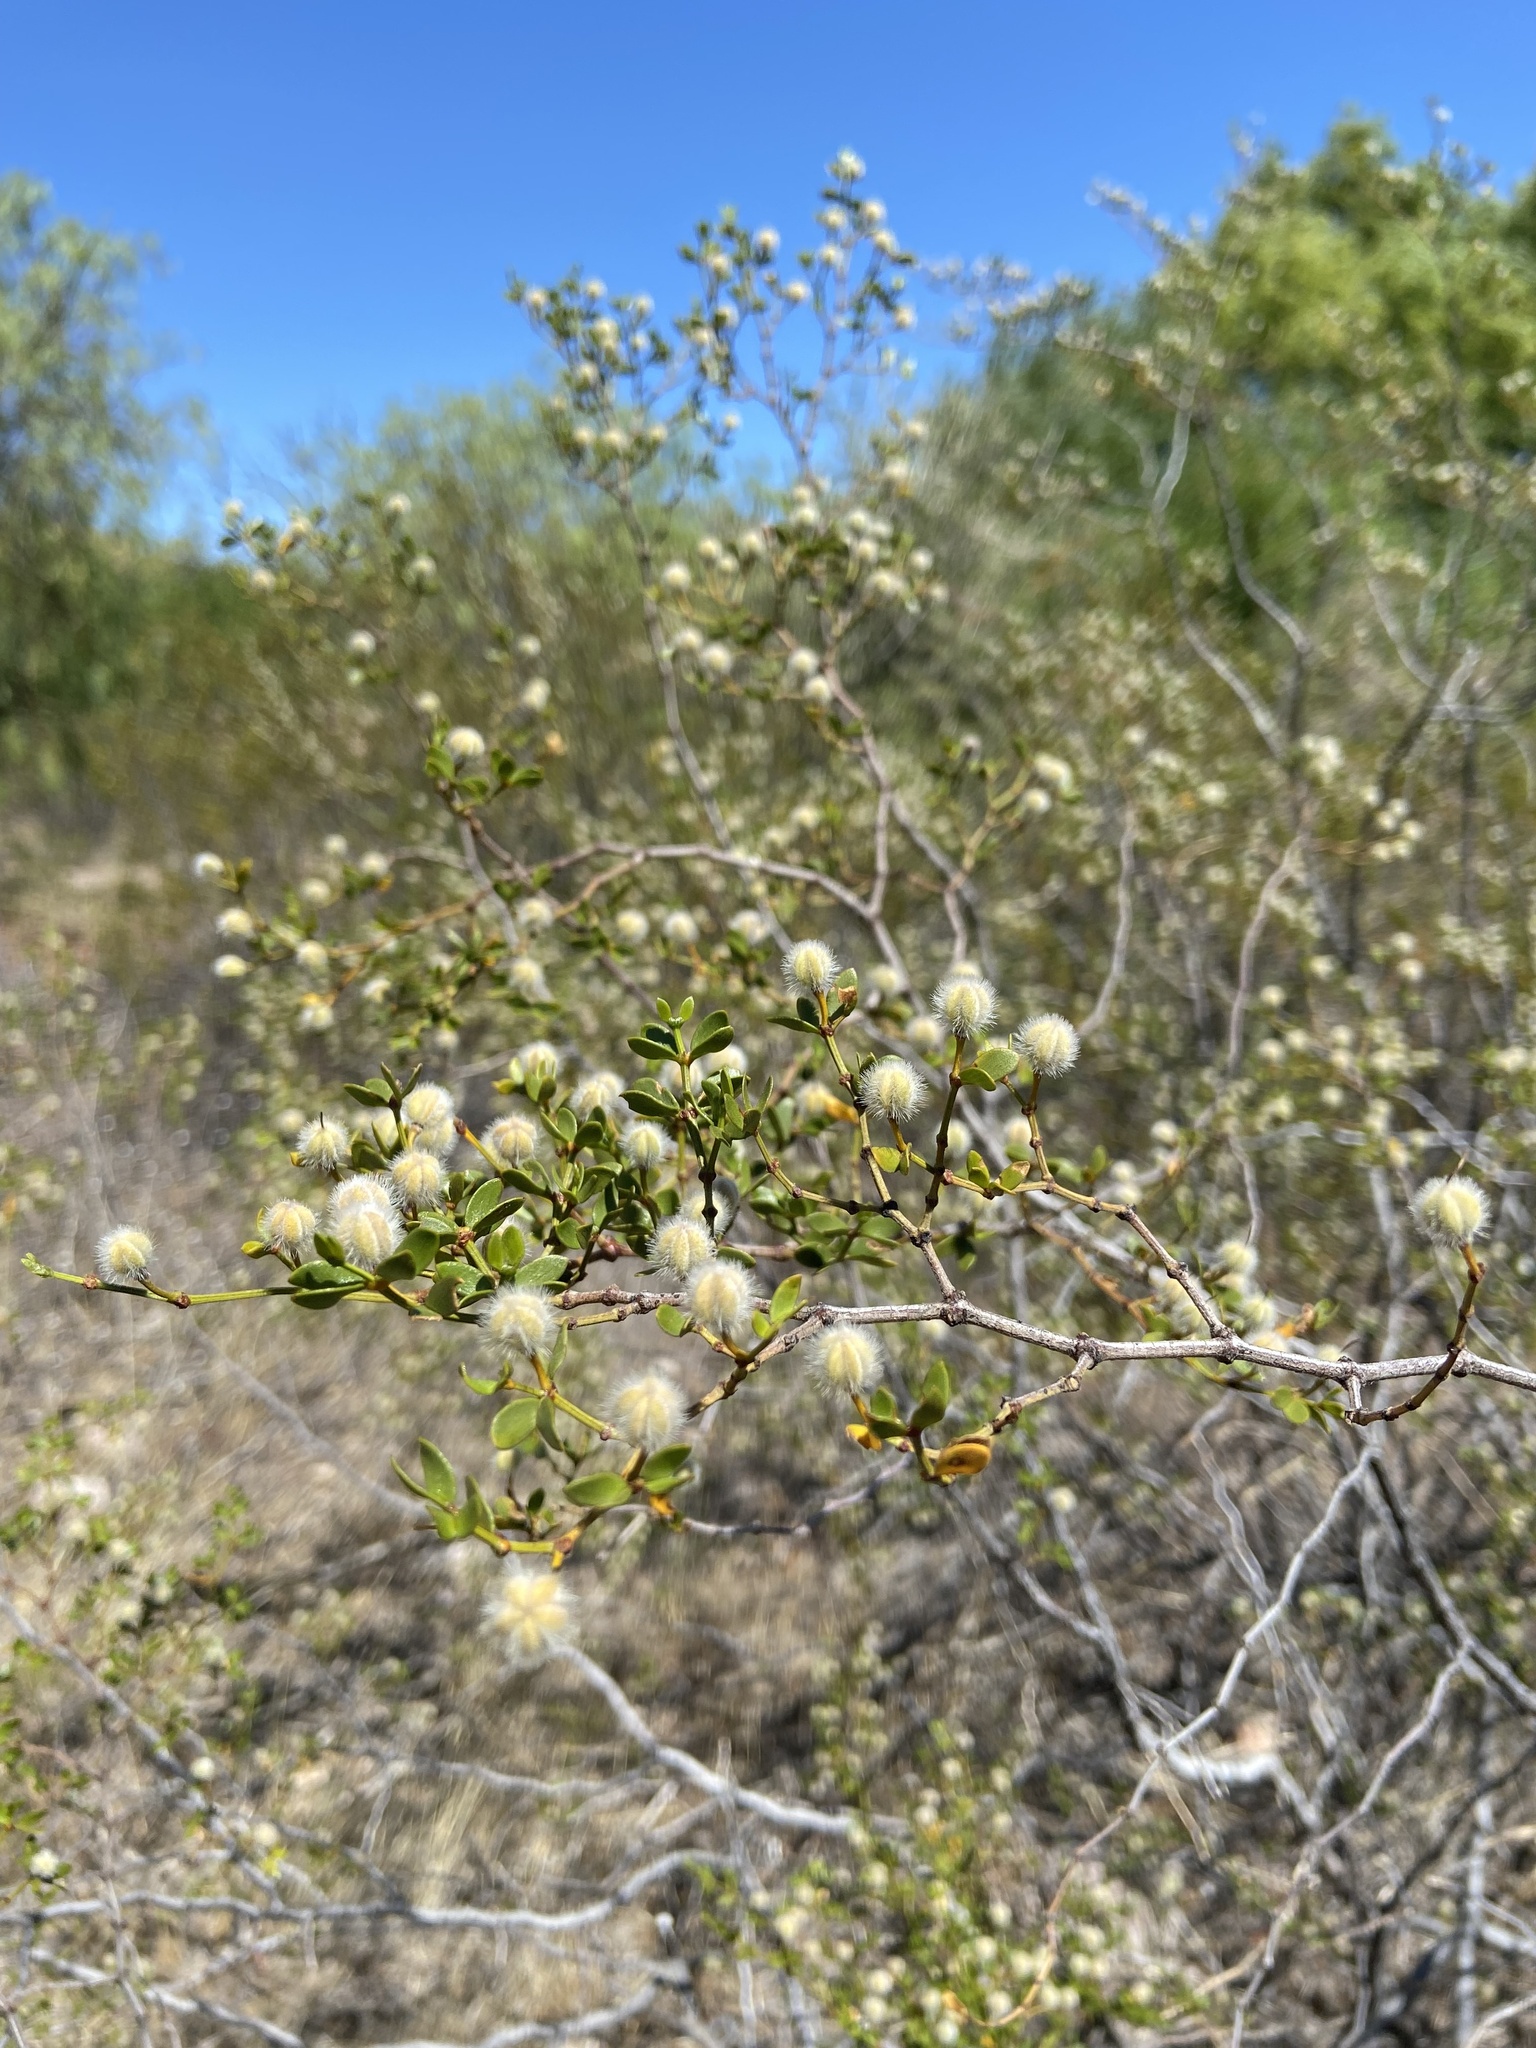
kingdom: Plantae
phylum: Tracheophyta
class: Magnoliopsida
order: Zygophyllales
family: Zygophyllaceae
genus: Larrea
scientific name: Larrea divaricata
